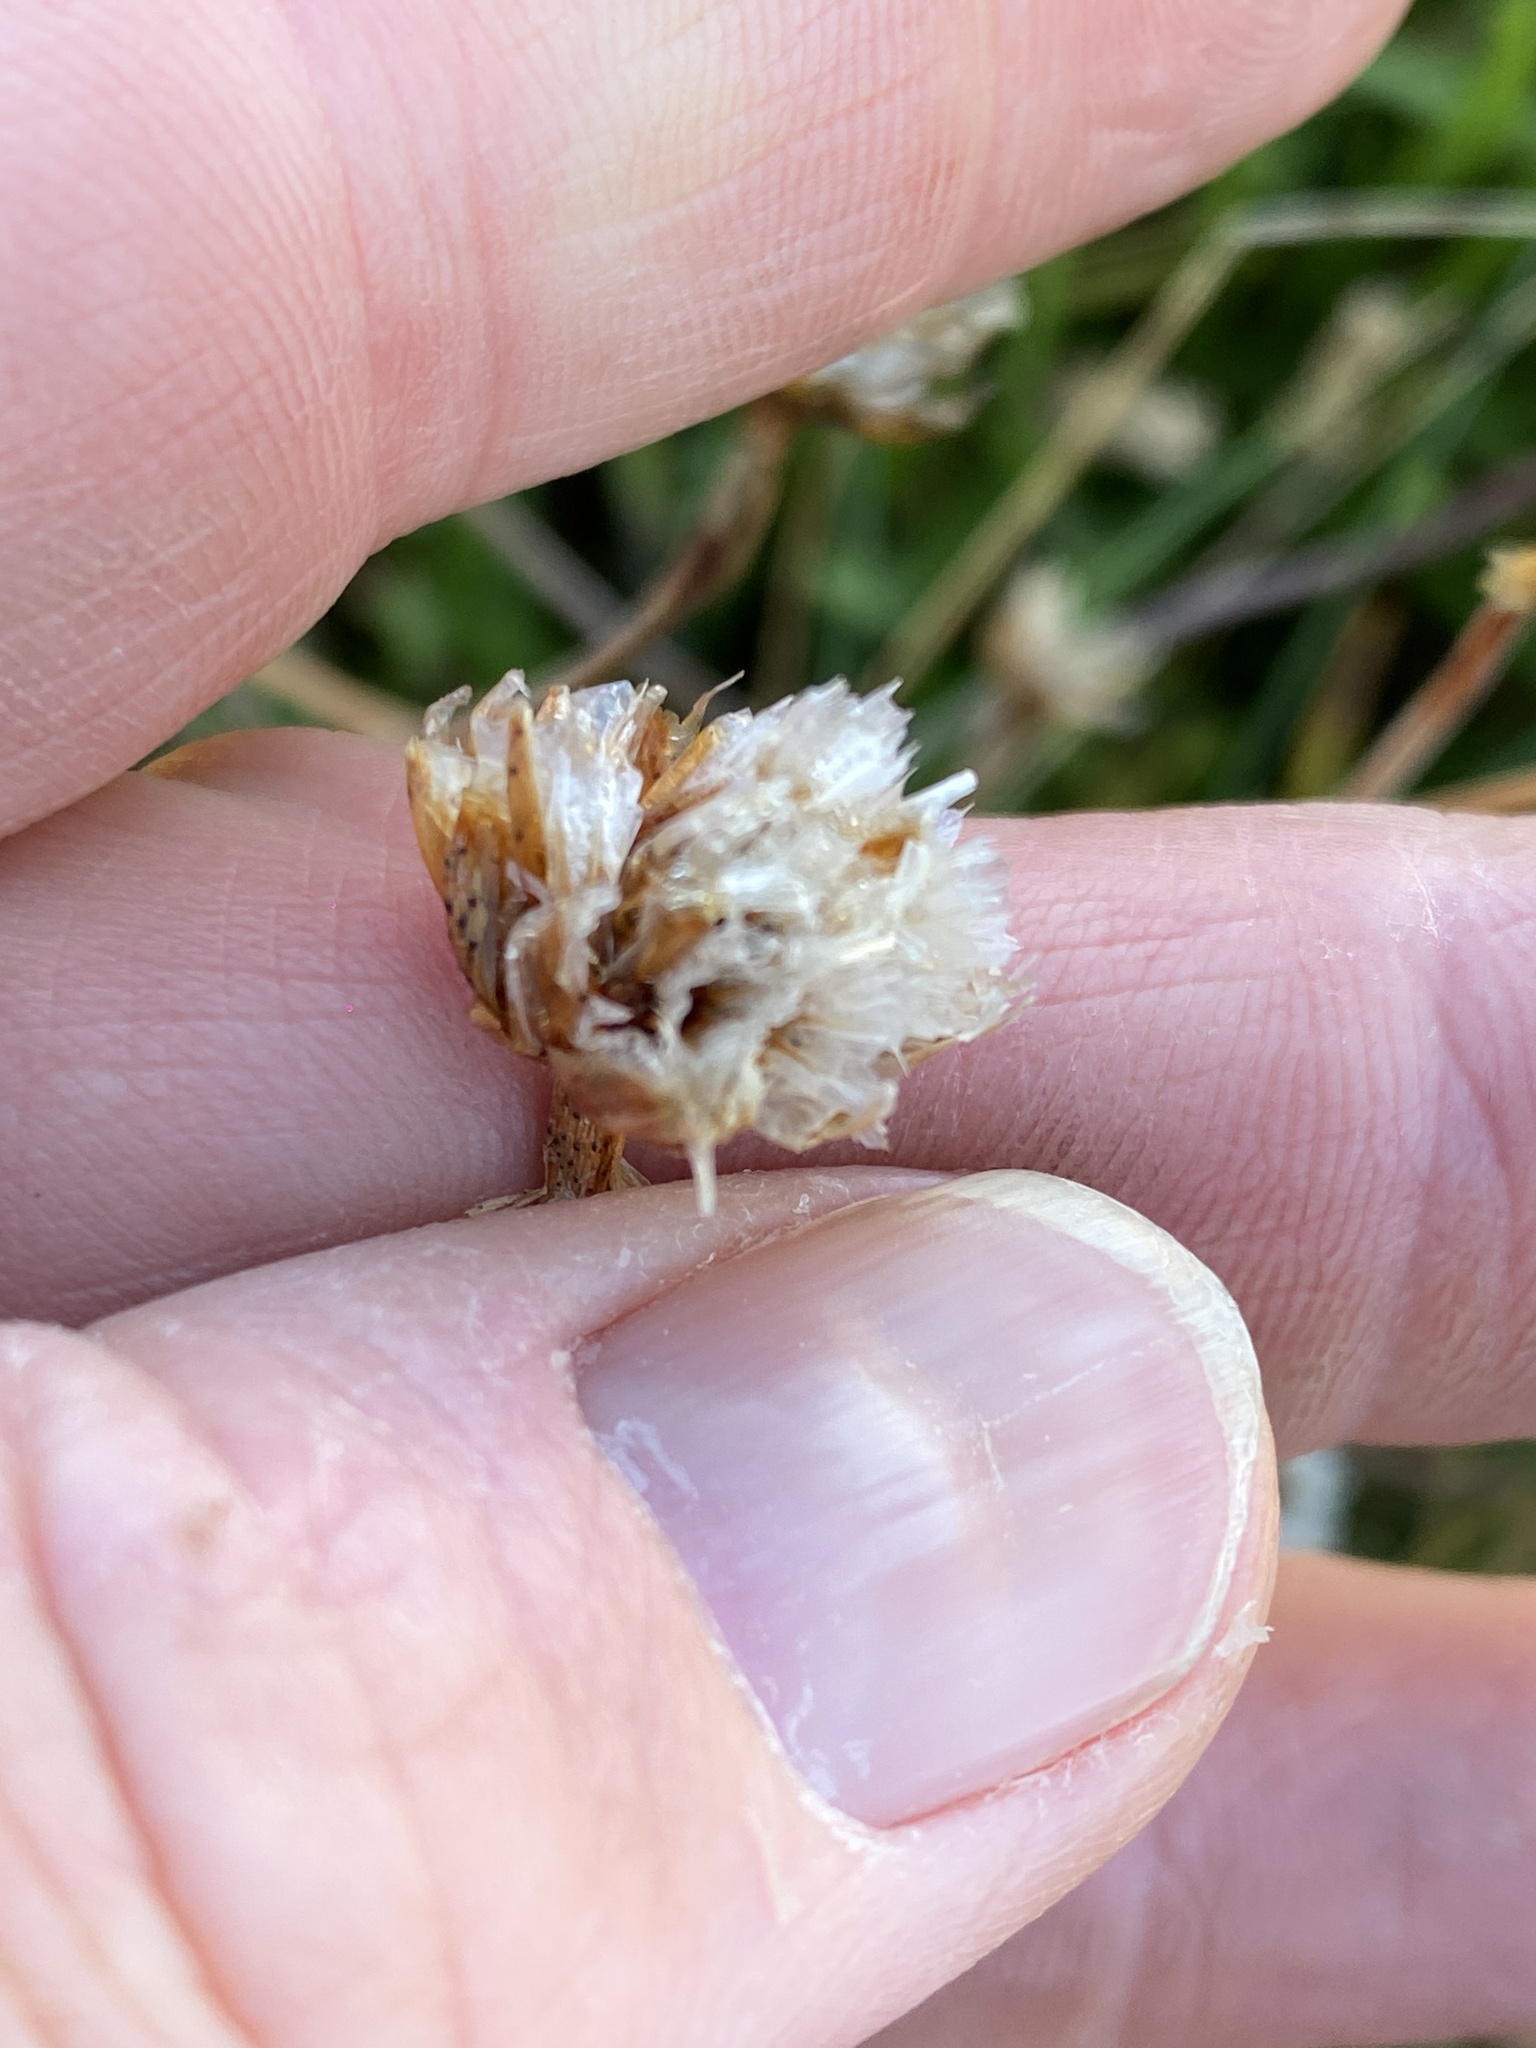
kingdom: Plantae
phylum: Tracheophyta
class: Magnoliopsida
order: Caryophyllales
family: Plumbaginaceae
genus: Armeria
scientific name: Armeria maritima
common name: Thrift
